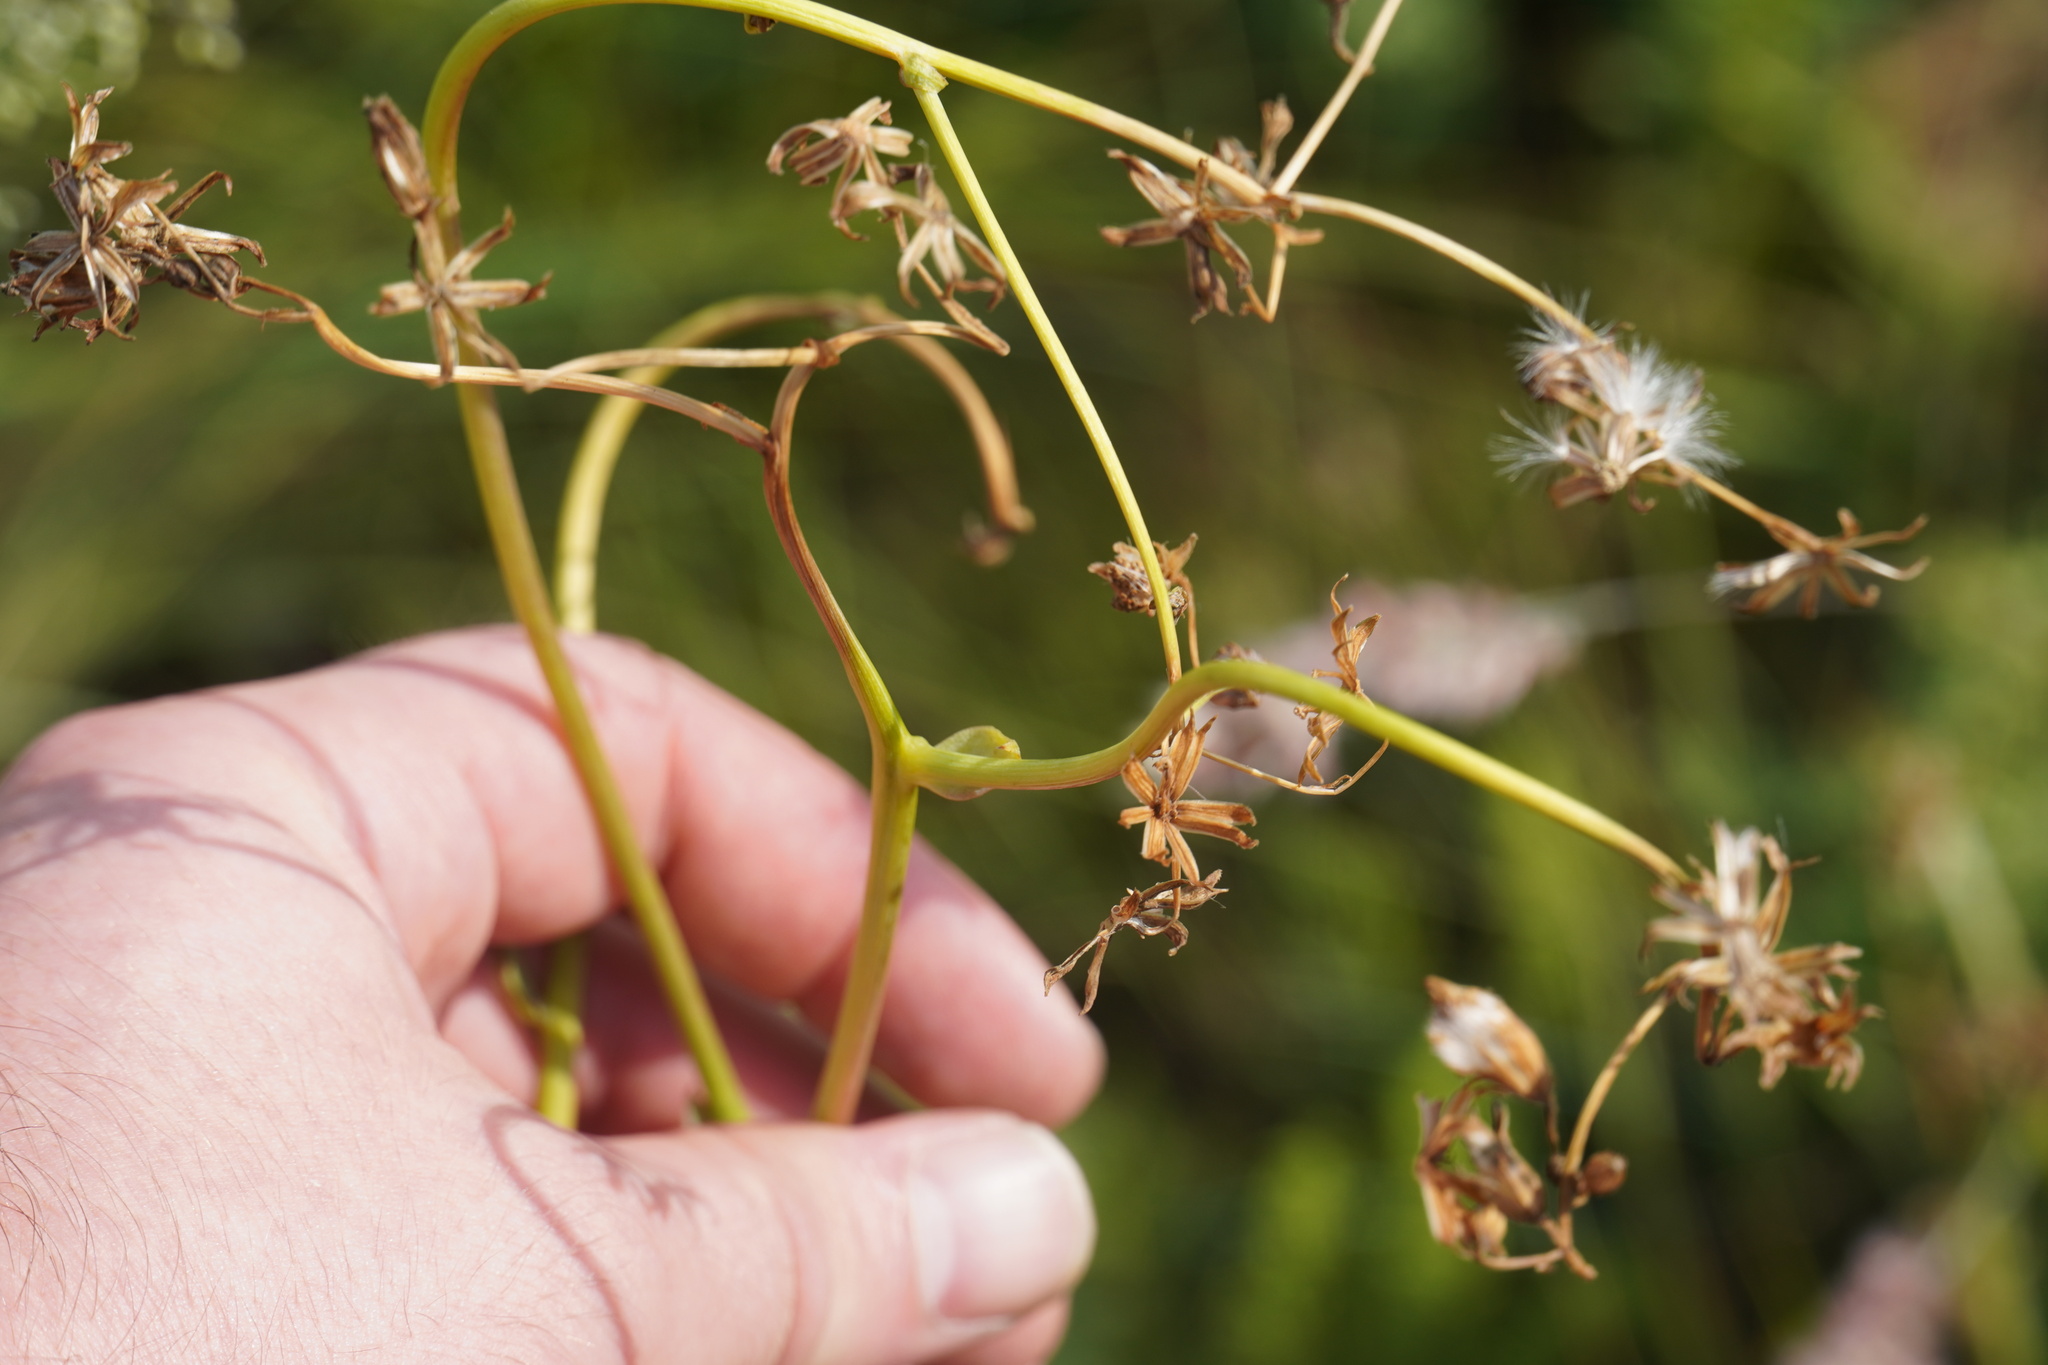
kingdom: Plantae
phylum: Tracheophyta
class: Magnoliopsida
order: Asterales
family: Asteraceae
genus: Senecio
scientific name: Senecio oxyriifolius
